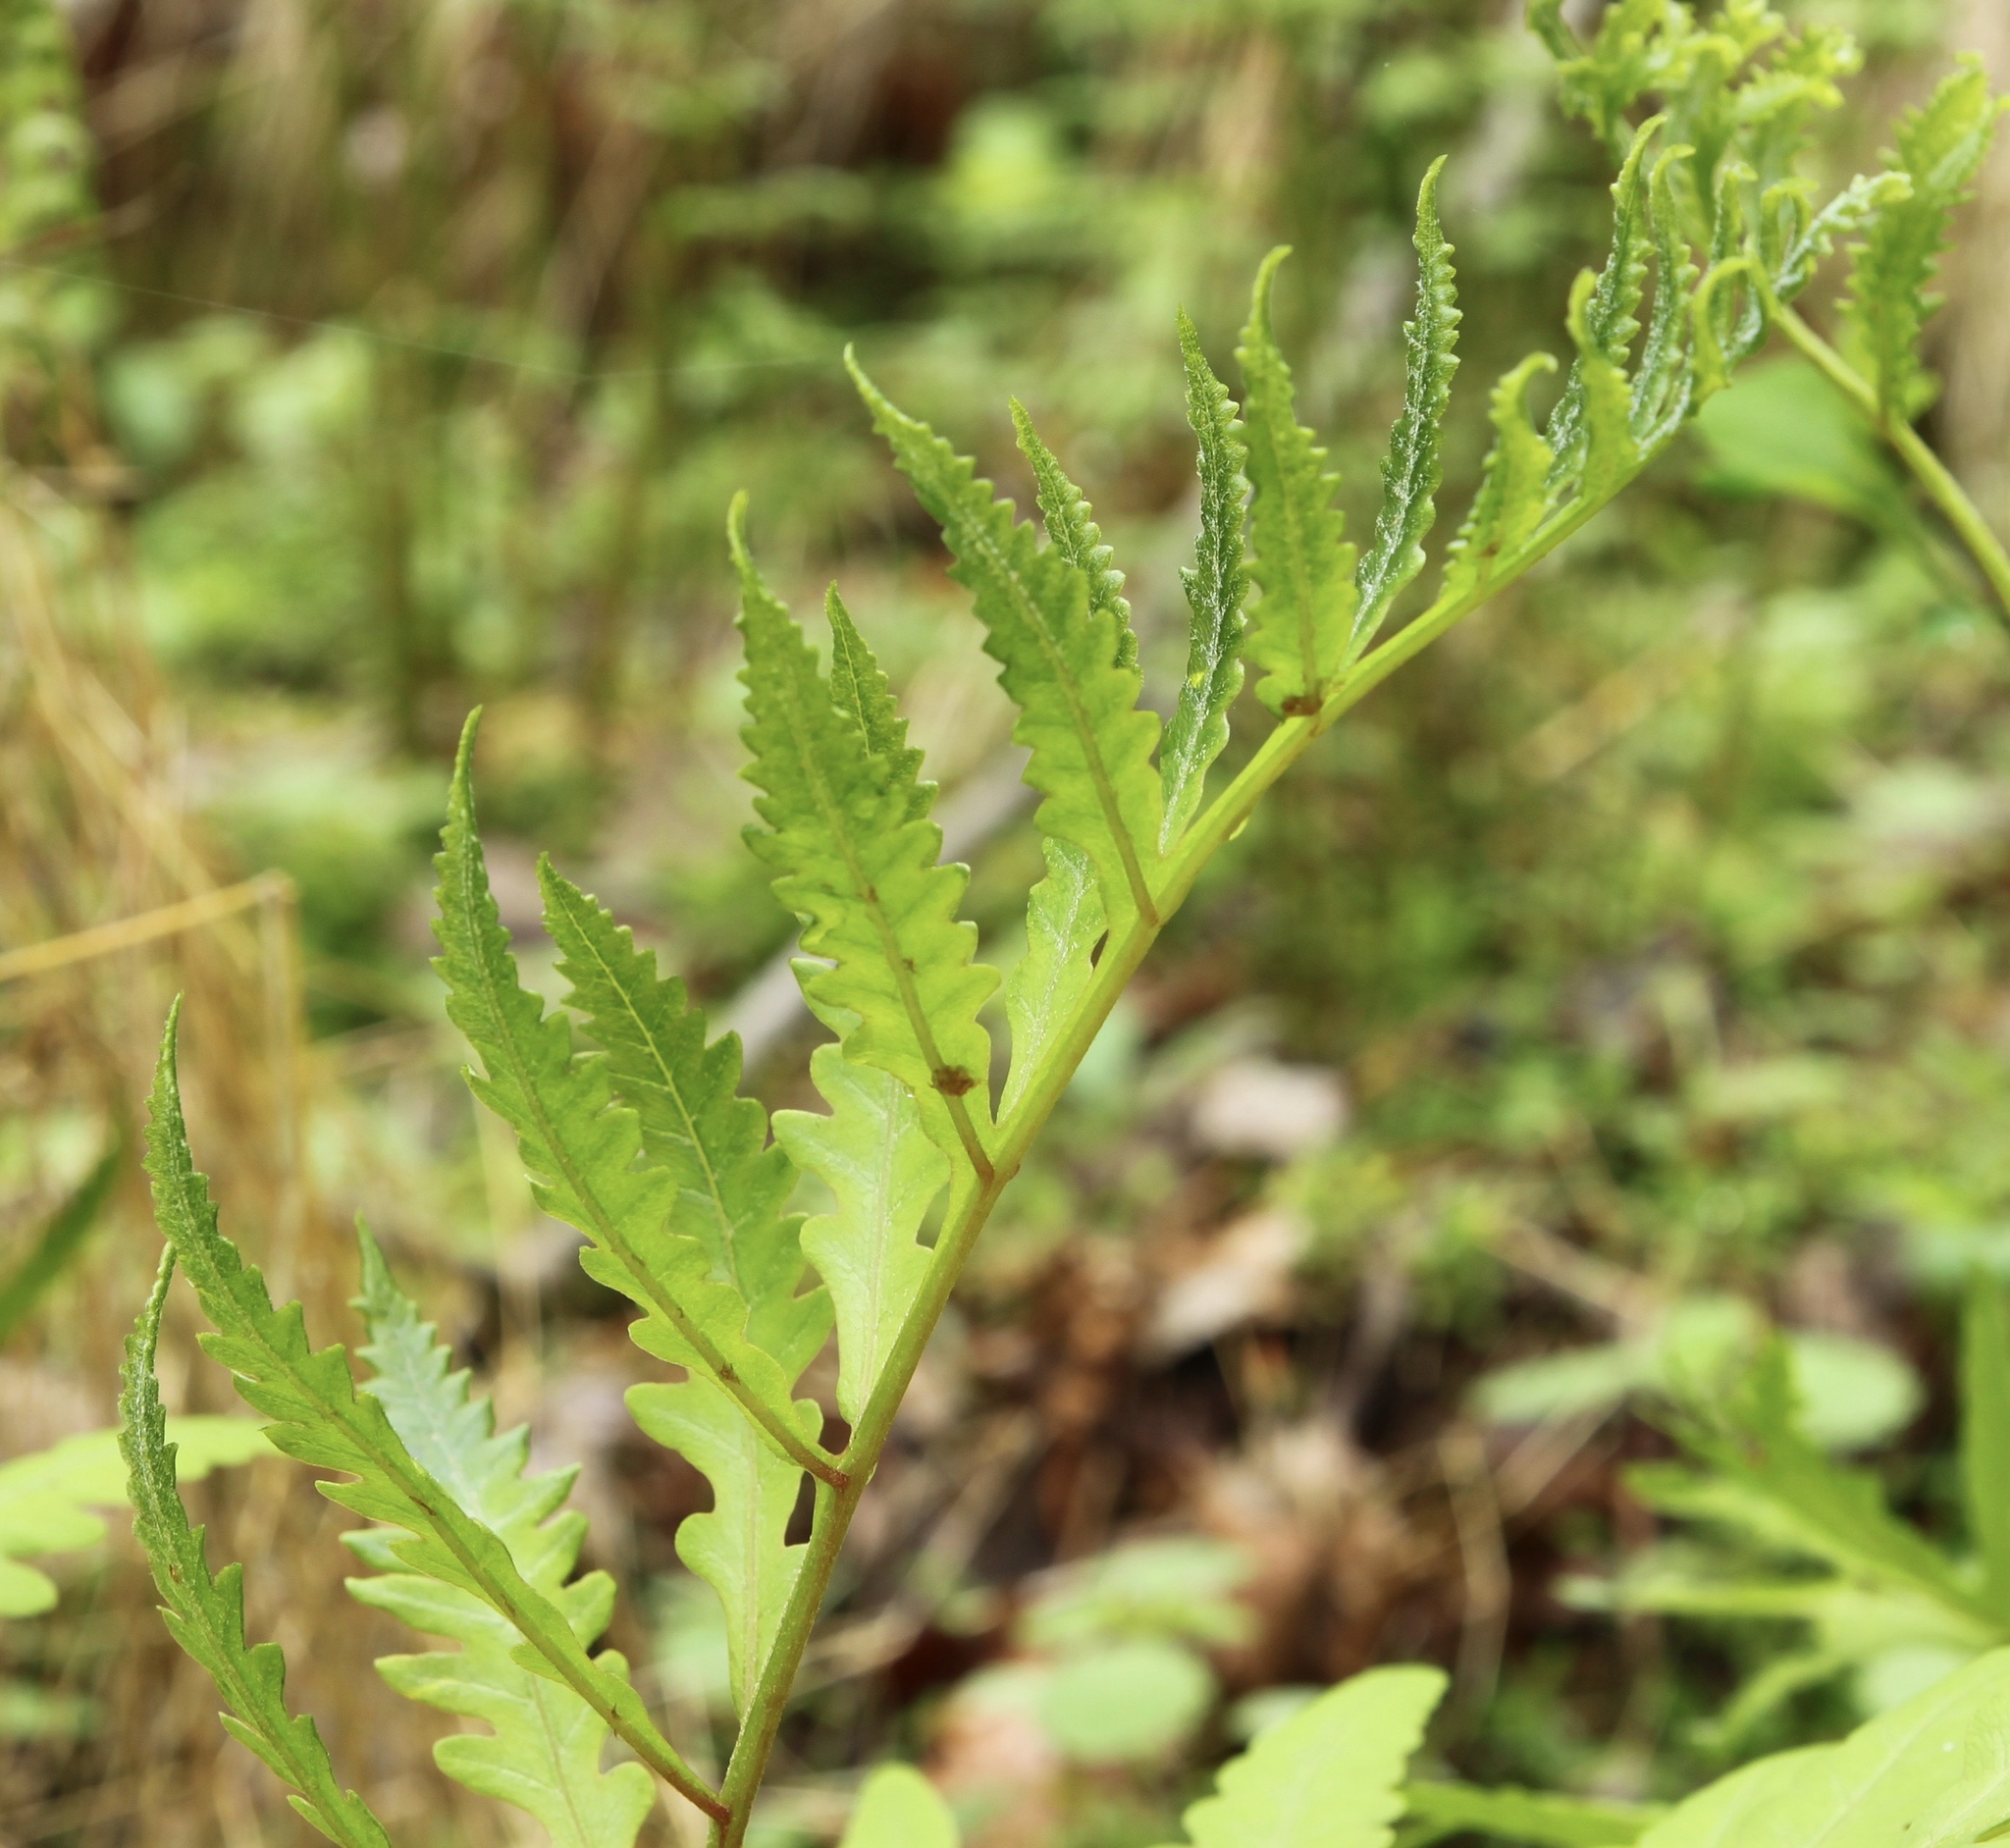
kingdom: Plantae
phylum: Tracheophyta
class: Polypodiopsida
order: Polypodiales
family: Onocleaceae
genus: Onoclea
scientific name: Onoclea sensibilis
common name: Sensitive fern
